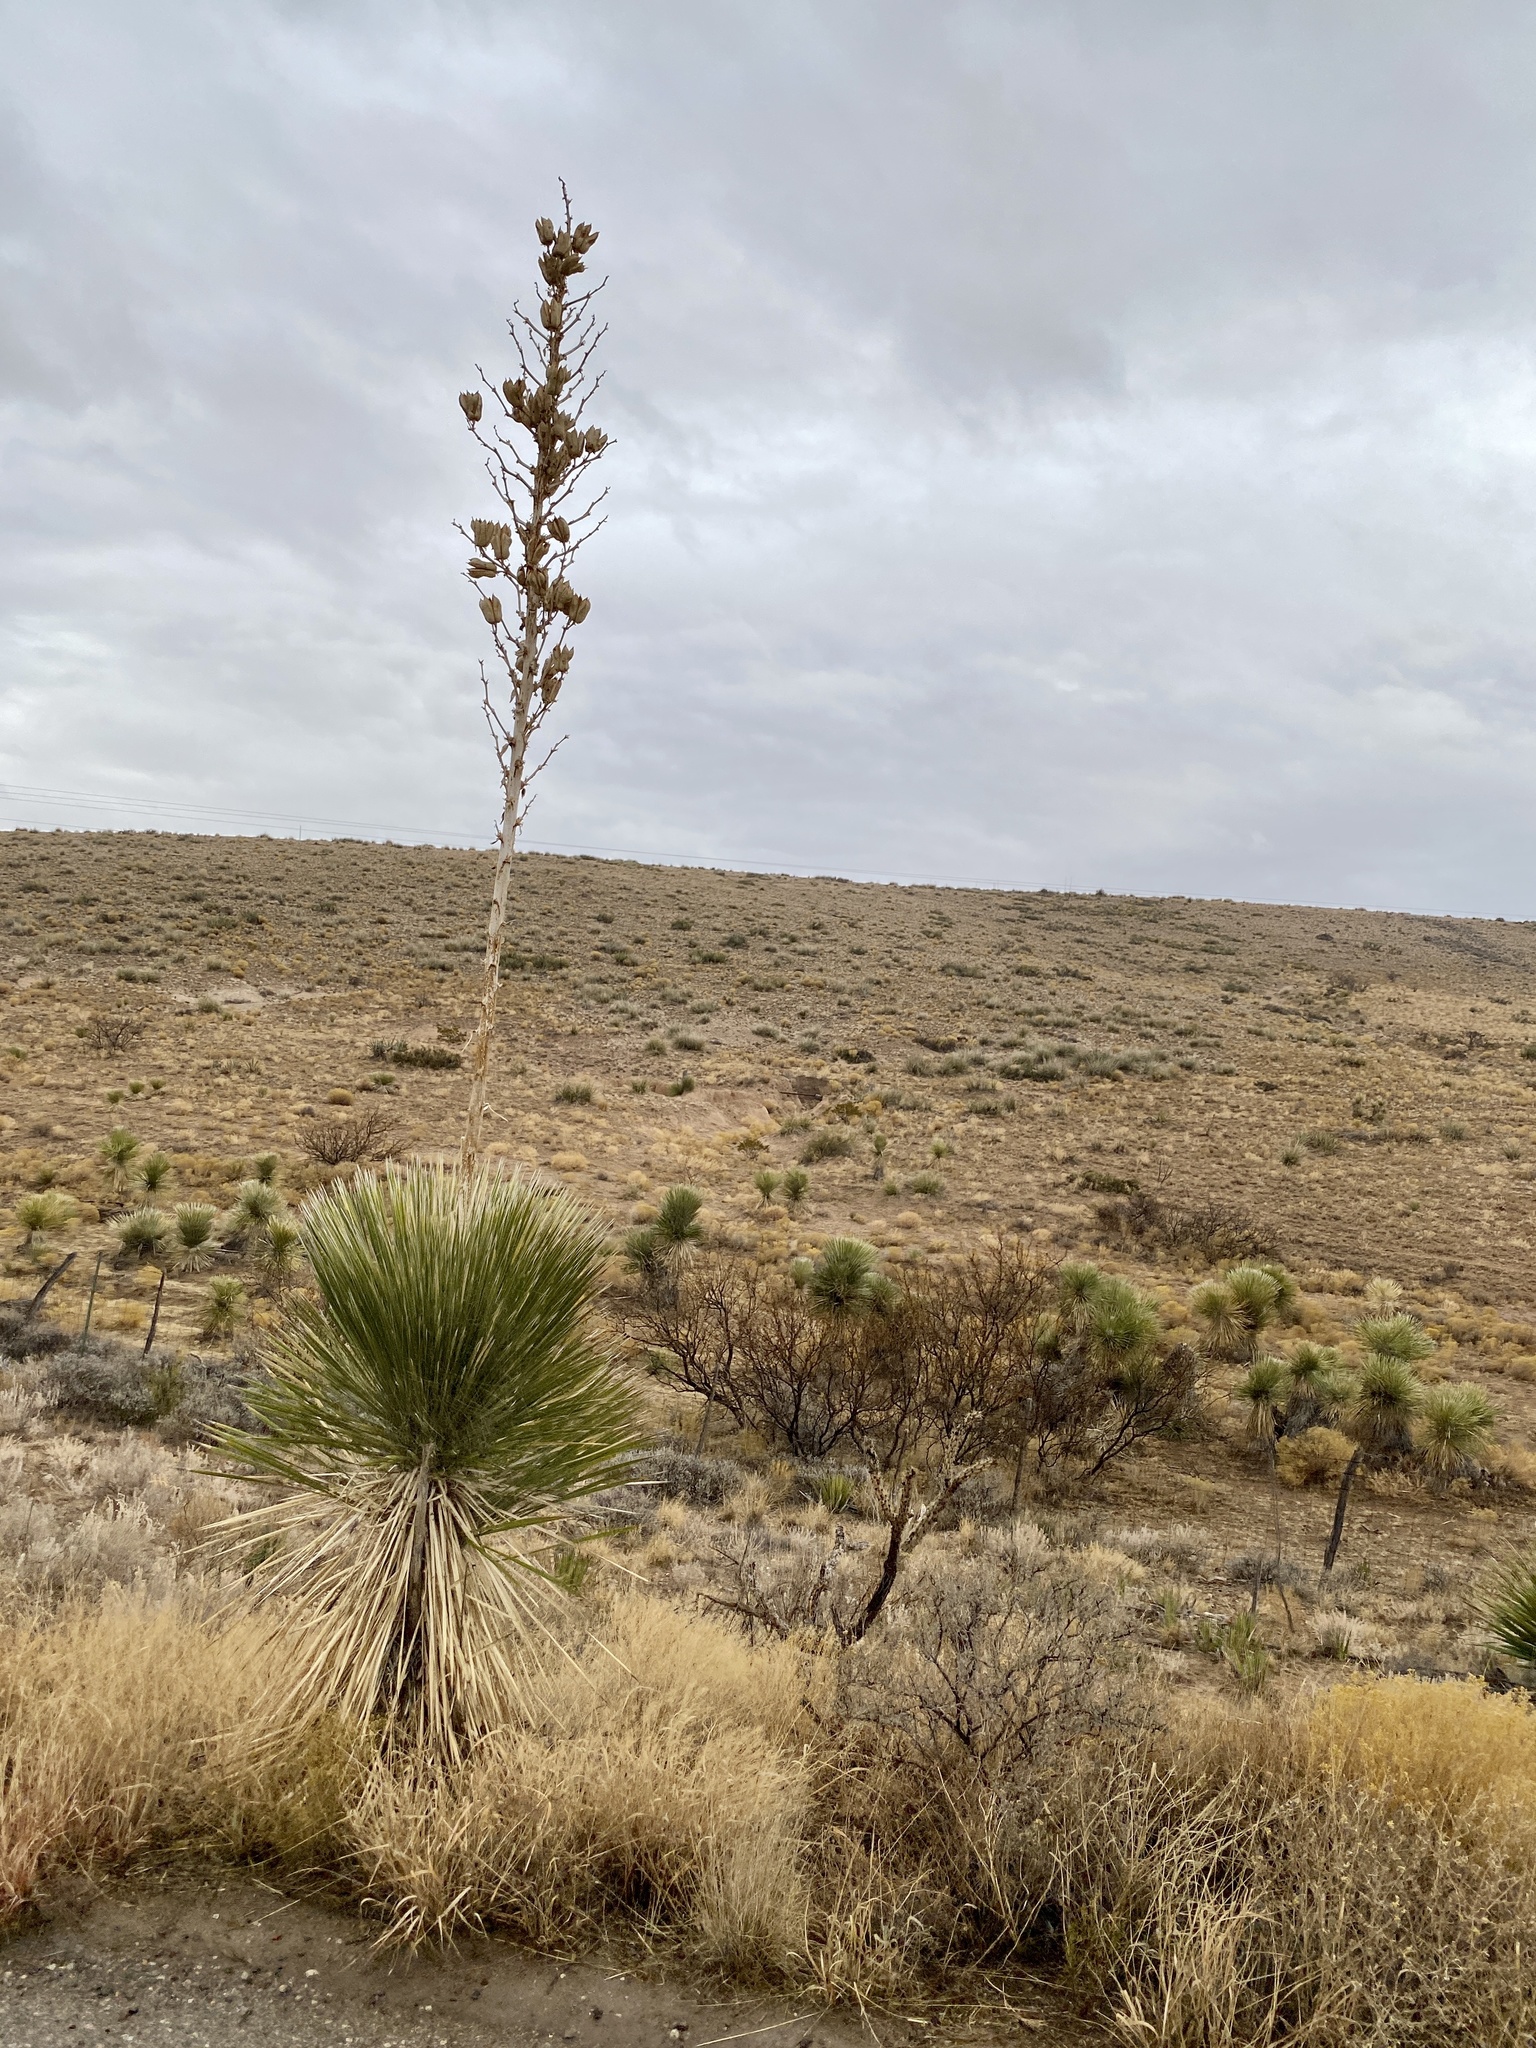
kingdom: Plantae
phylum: Tracheophyta
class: Liliopsida
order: Asparagales
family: Asparagaceae
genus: Yucca
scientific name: Yucca elata
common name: Palmella
